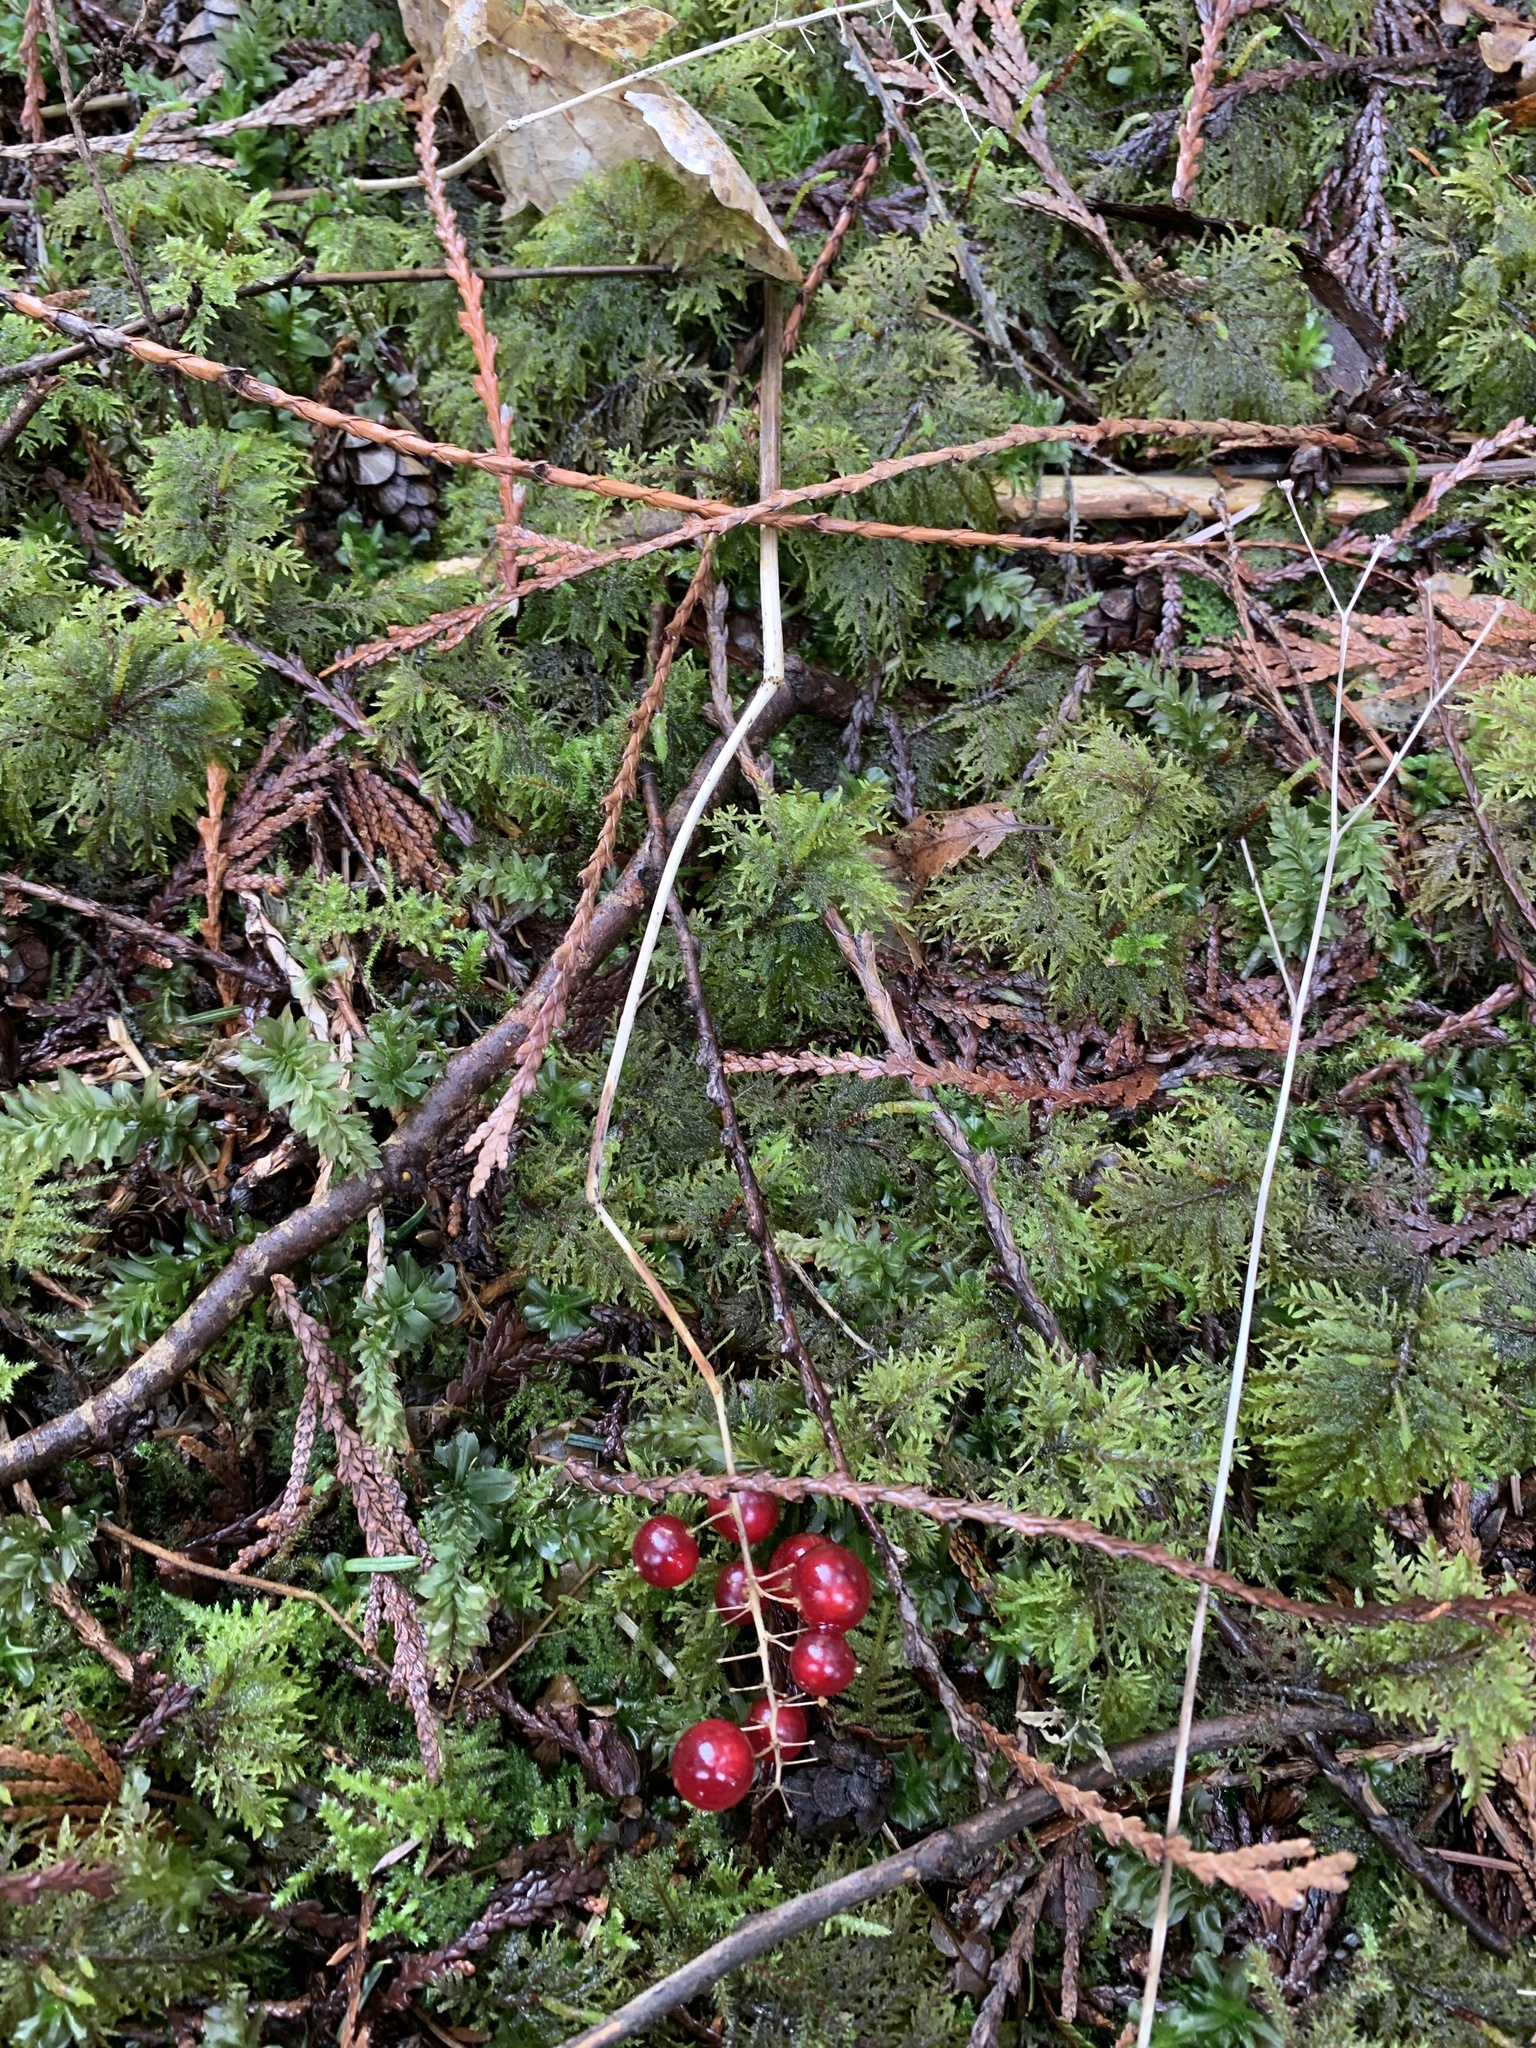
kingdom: Plantae
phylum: Tracheophyta
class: Liliopsida
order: Asparagales
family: Asparagaceae
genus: Maianthemum
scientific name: Maianthemum dilatatum
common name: False lily-of-the-valley
